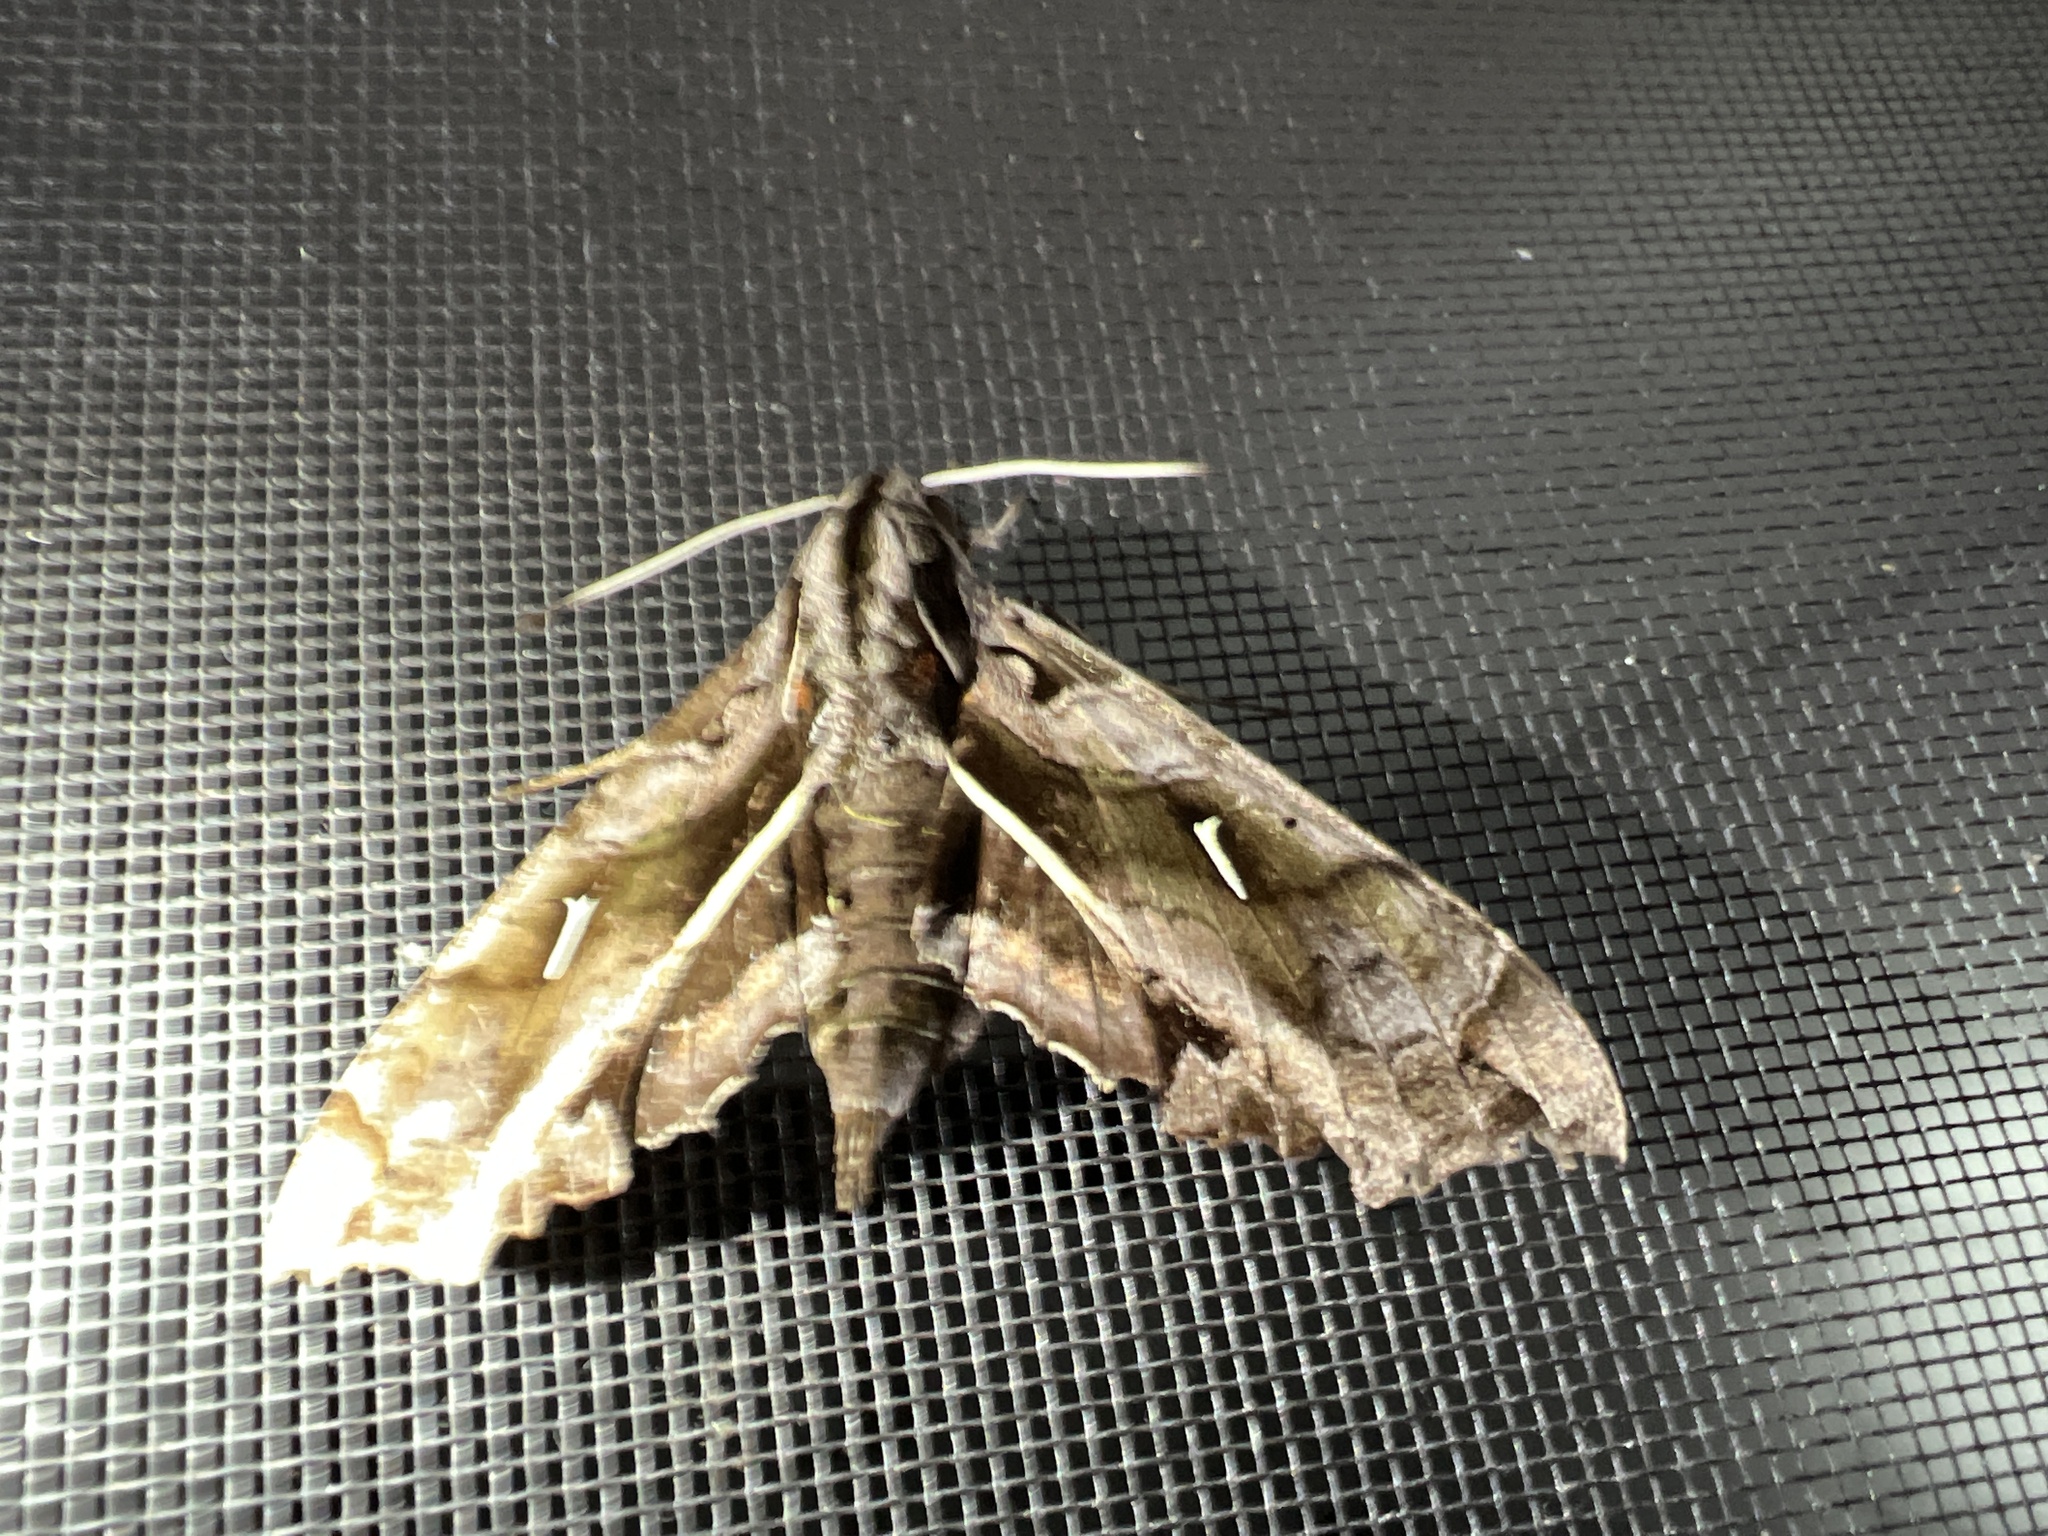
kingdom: Animalia
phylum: Arthropoda
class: Insecta
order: Lepidoptera
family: Sphingidae
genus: Hemeroplanes
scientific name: Hemeroplanes triptolemus
